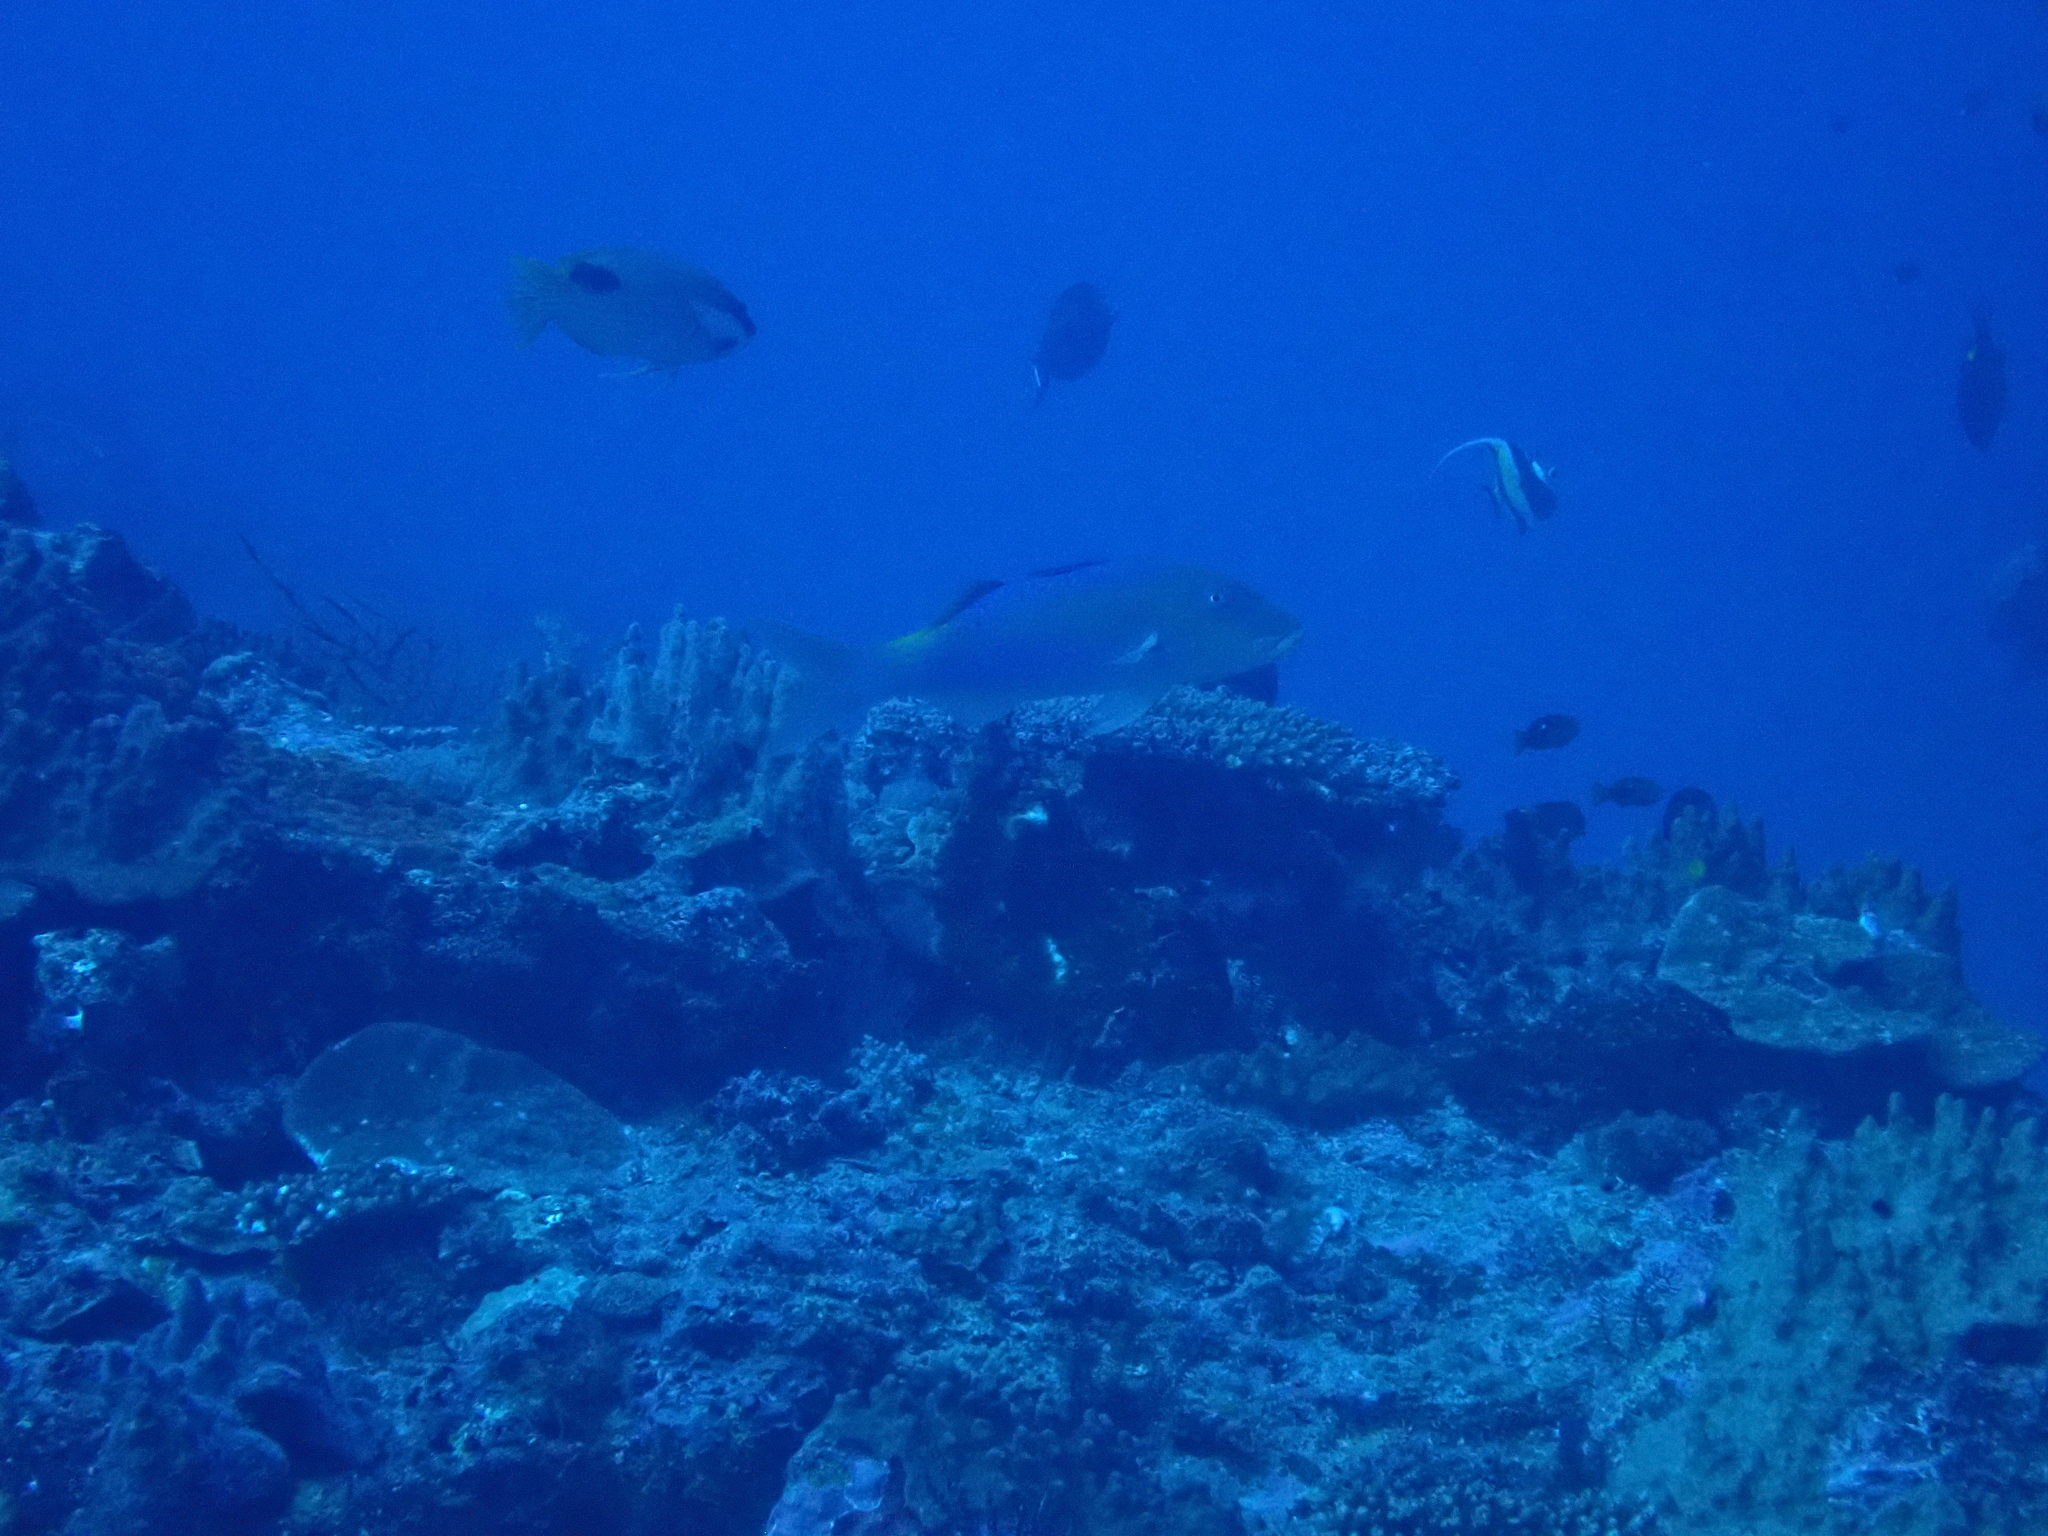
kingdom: Animalia
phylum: Chordata
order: Perciformes
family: Mullidae
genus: Parupeneus
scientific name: Parupeneus cyclostomus
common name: Goldsaddle goatfish
